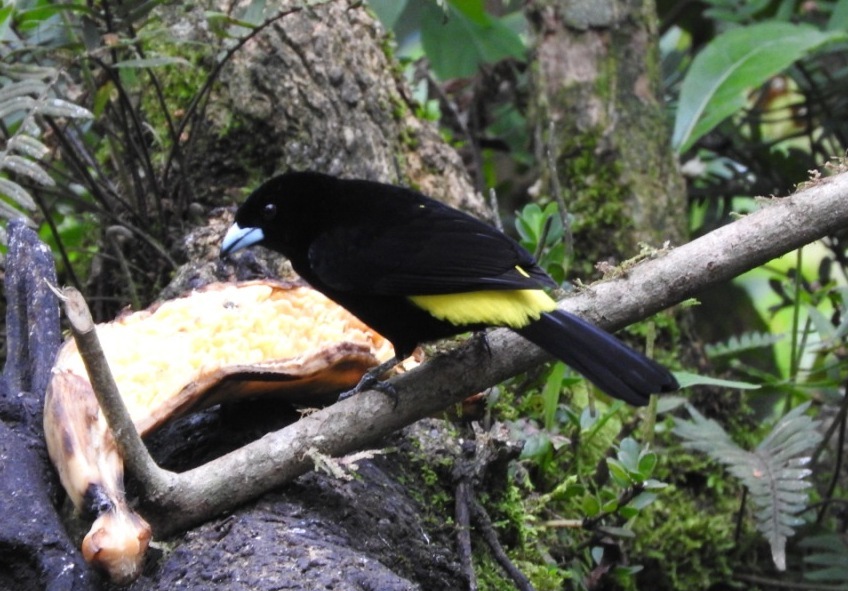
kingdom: Animalia
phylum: Chordata
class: Aves
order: Passeriformes
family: Thraupidae
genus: Ramphocelus
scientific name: Ramphocelus icteronotus
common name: Lemon-rumped tanager
